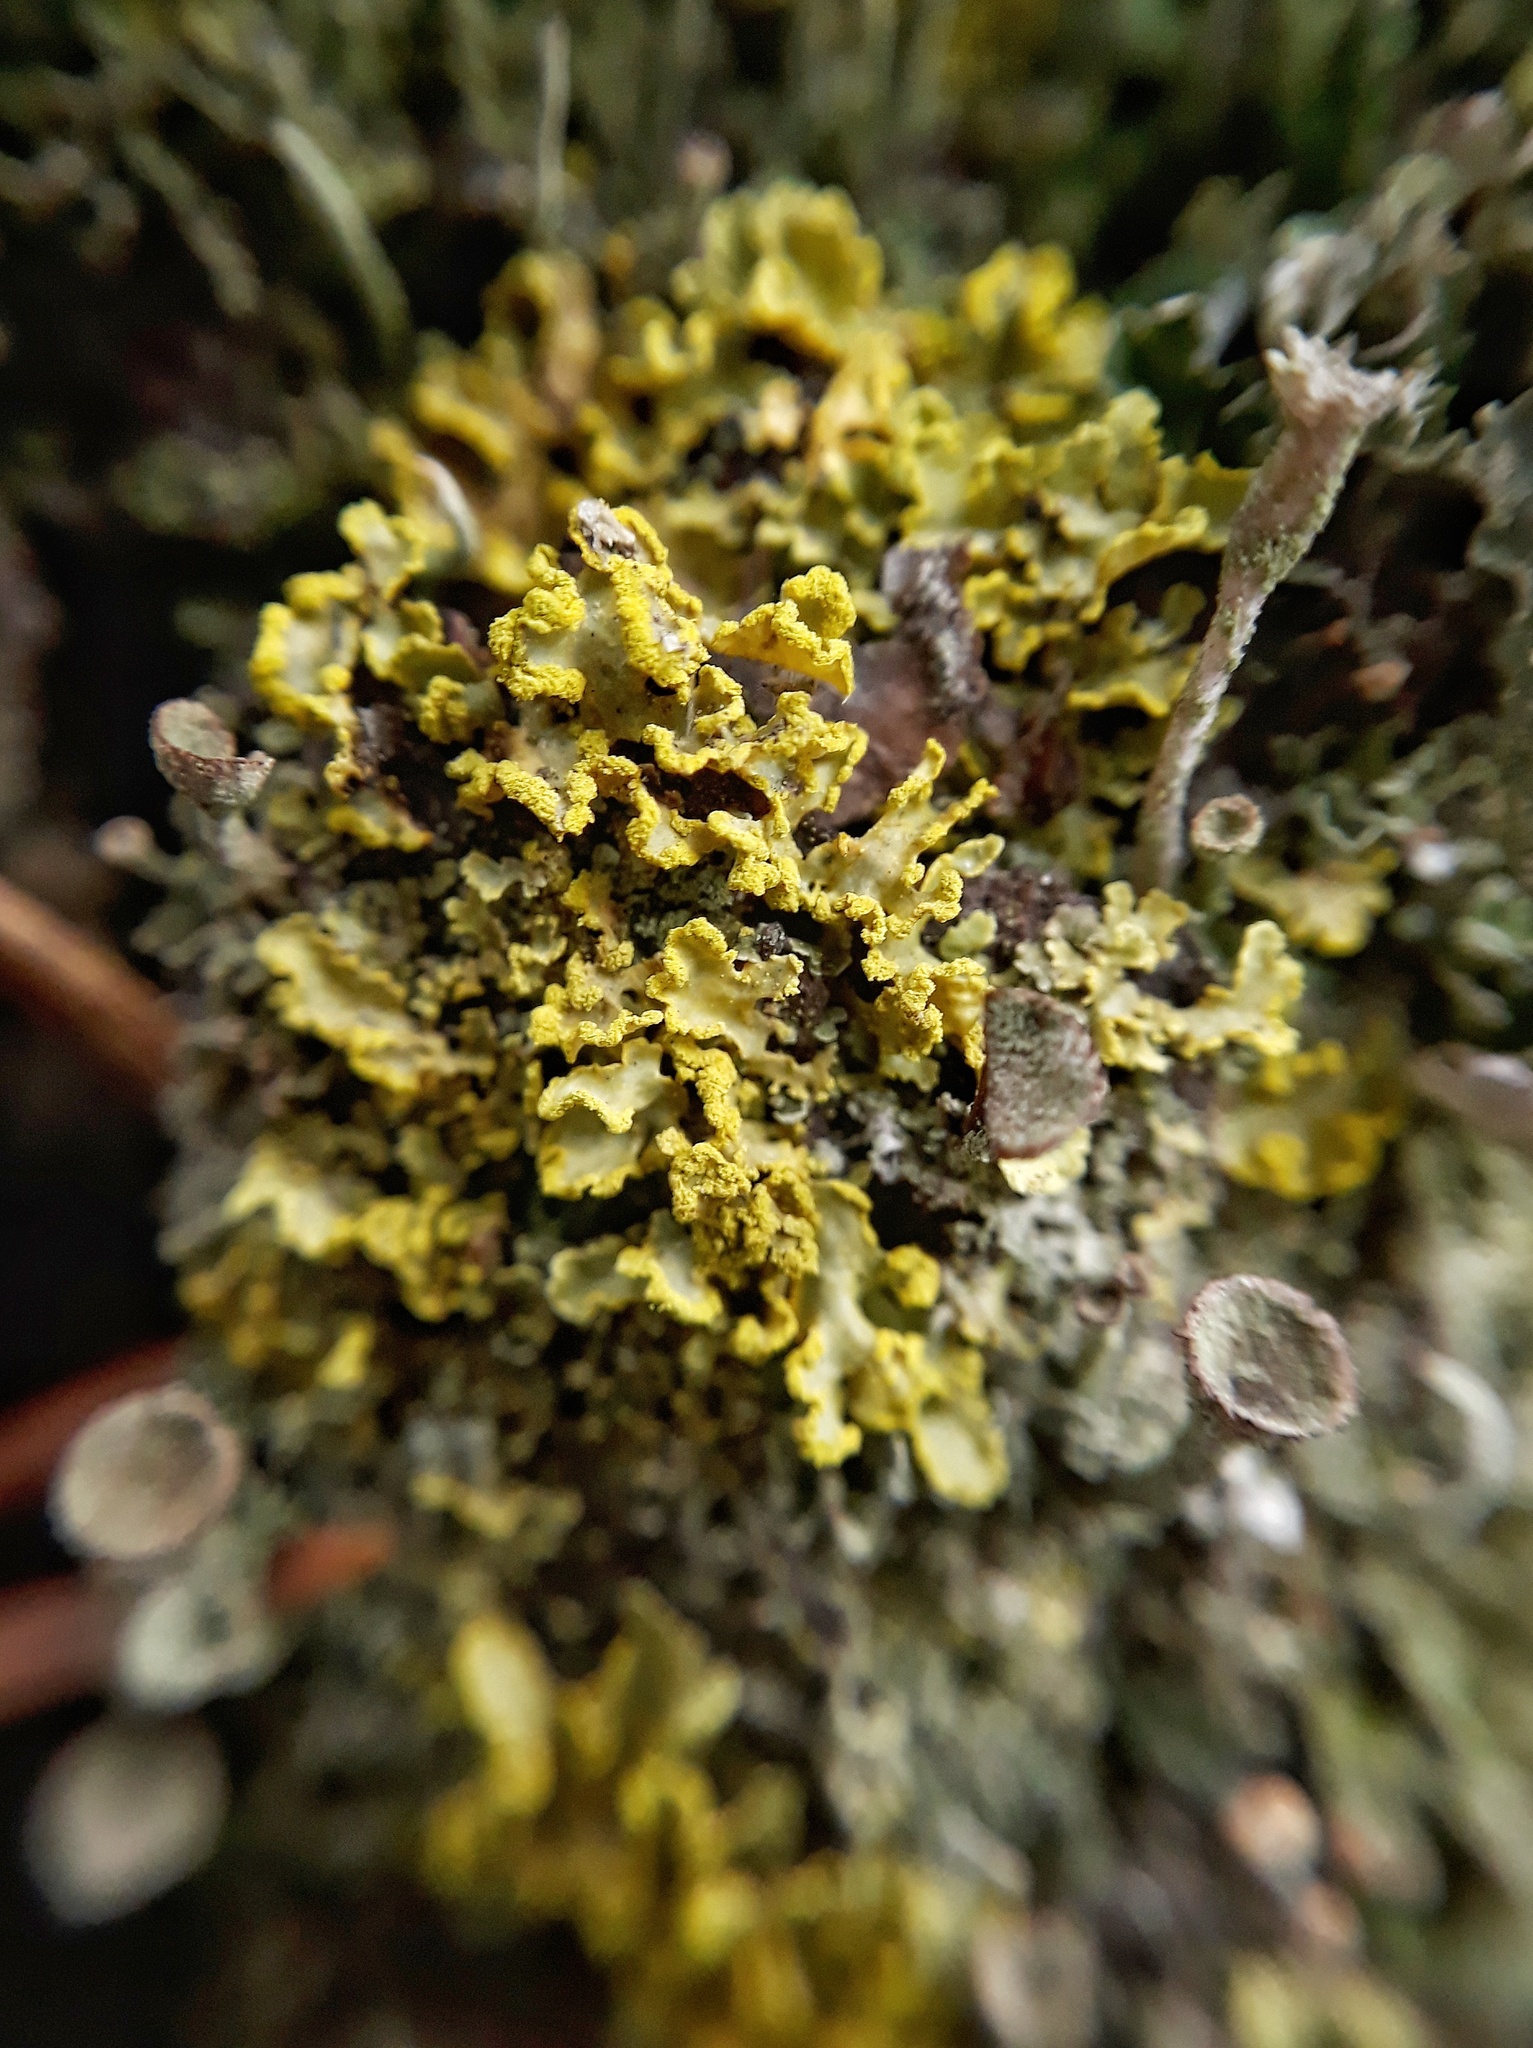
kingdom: Fungi
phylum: Ascomycota
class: Lecanoromycetes
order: Lecanorales
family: Parmeliaceae
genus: Vulpicida
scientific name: Vulpicida pinastri
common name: Powdered sunshine lichen
